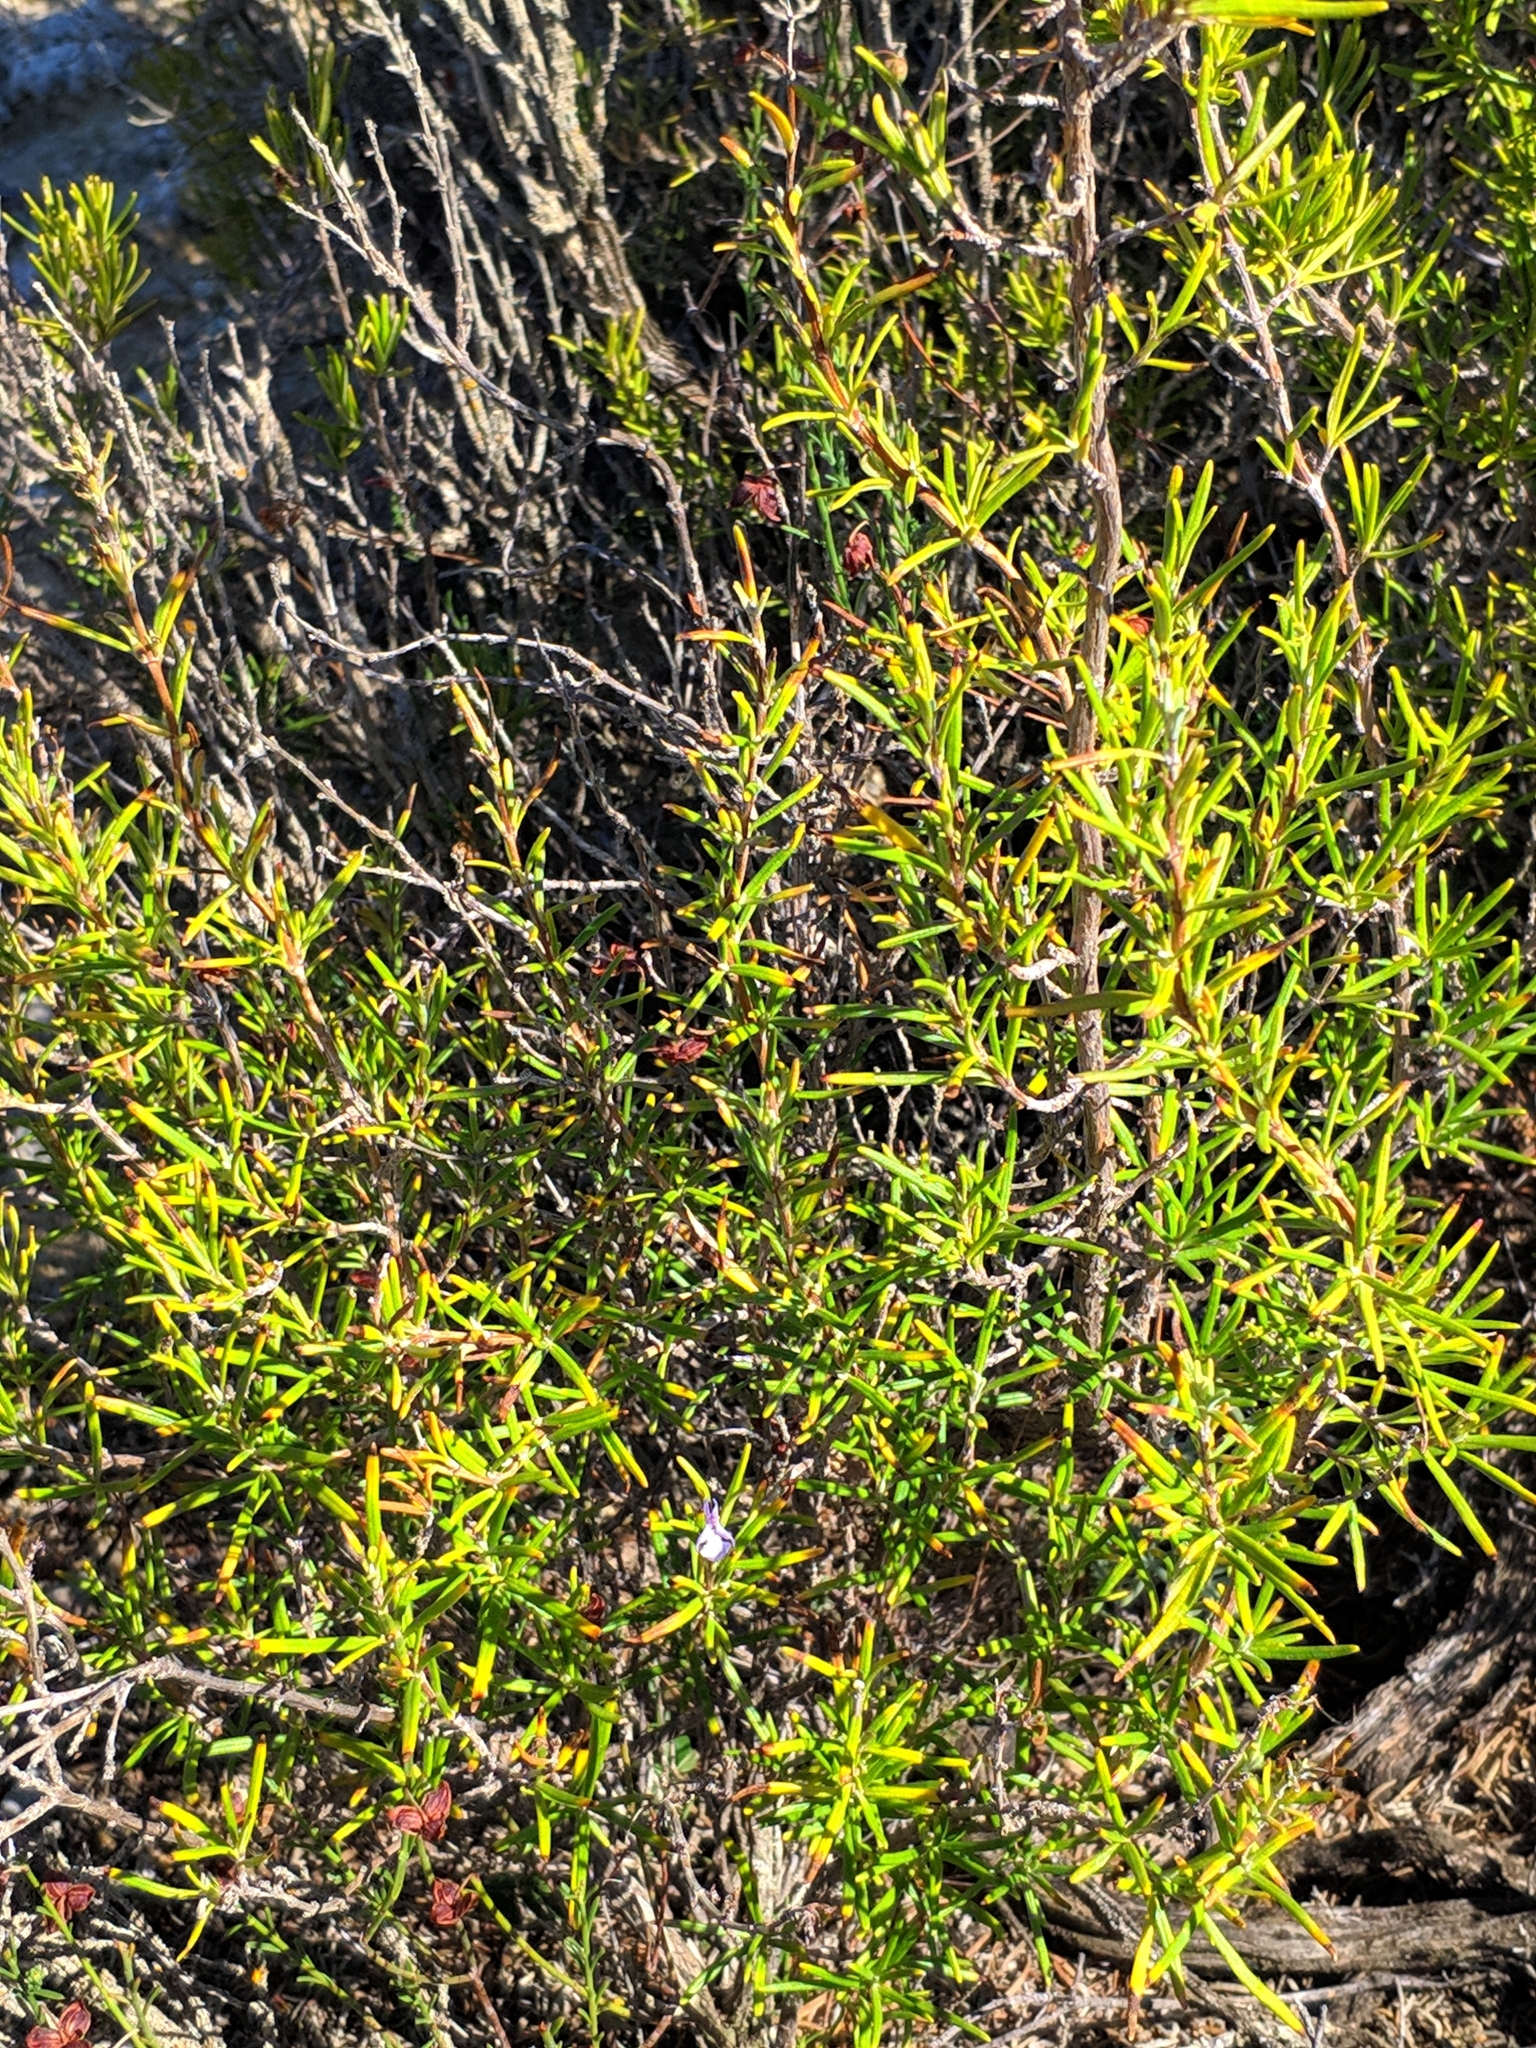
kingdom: Plantae
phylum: Tracheophyta
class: Magnoliopsida
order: Lamiales
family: Lamiaceae
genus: Salvia
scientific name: Salvia rosmarinus
